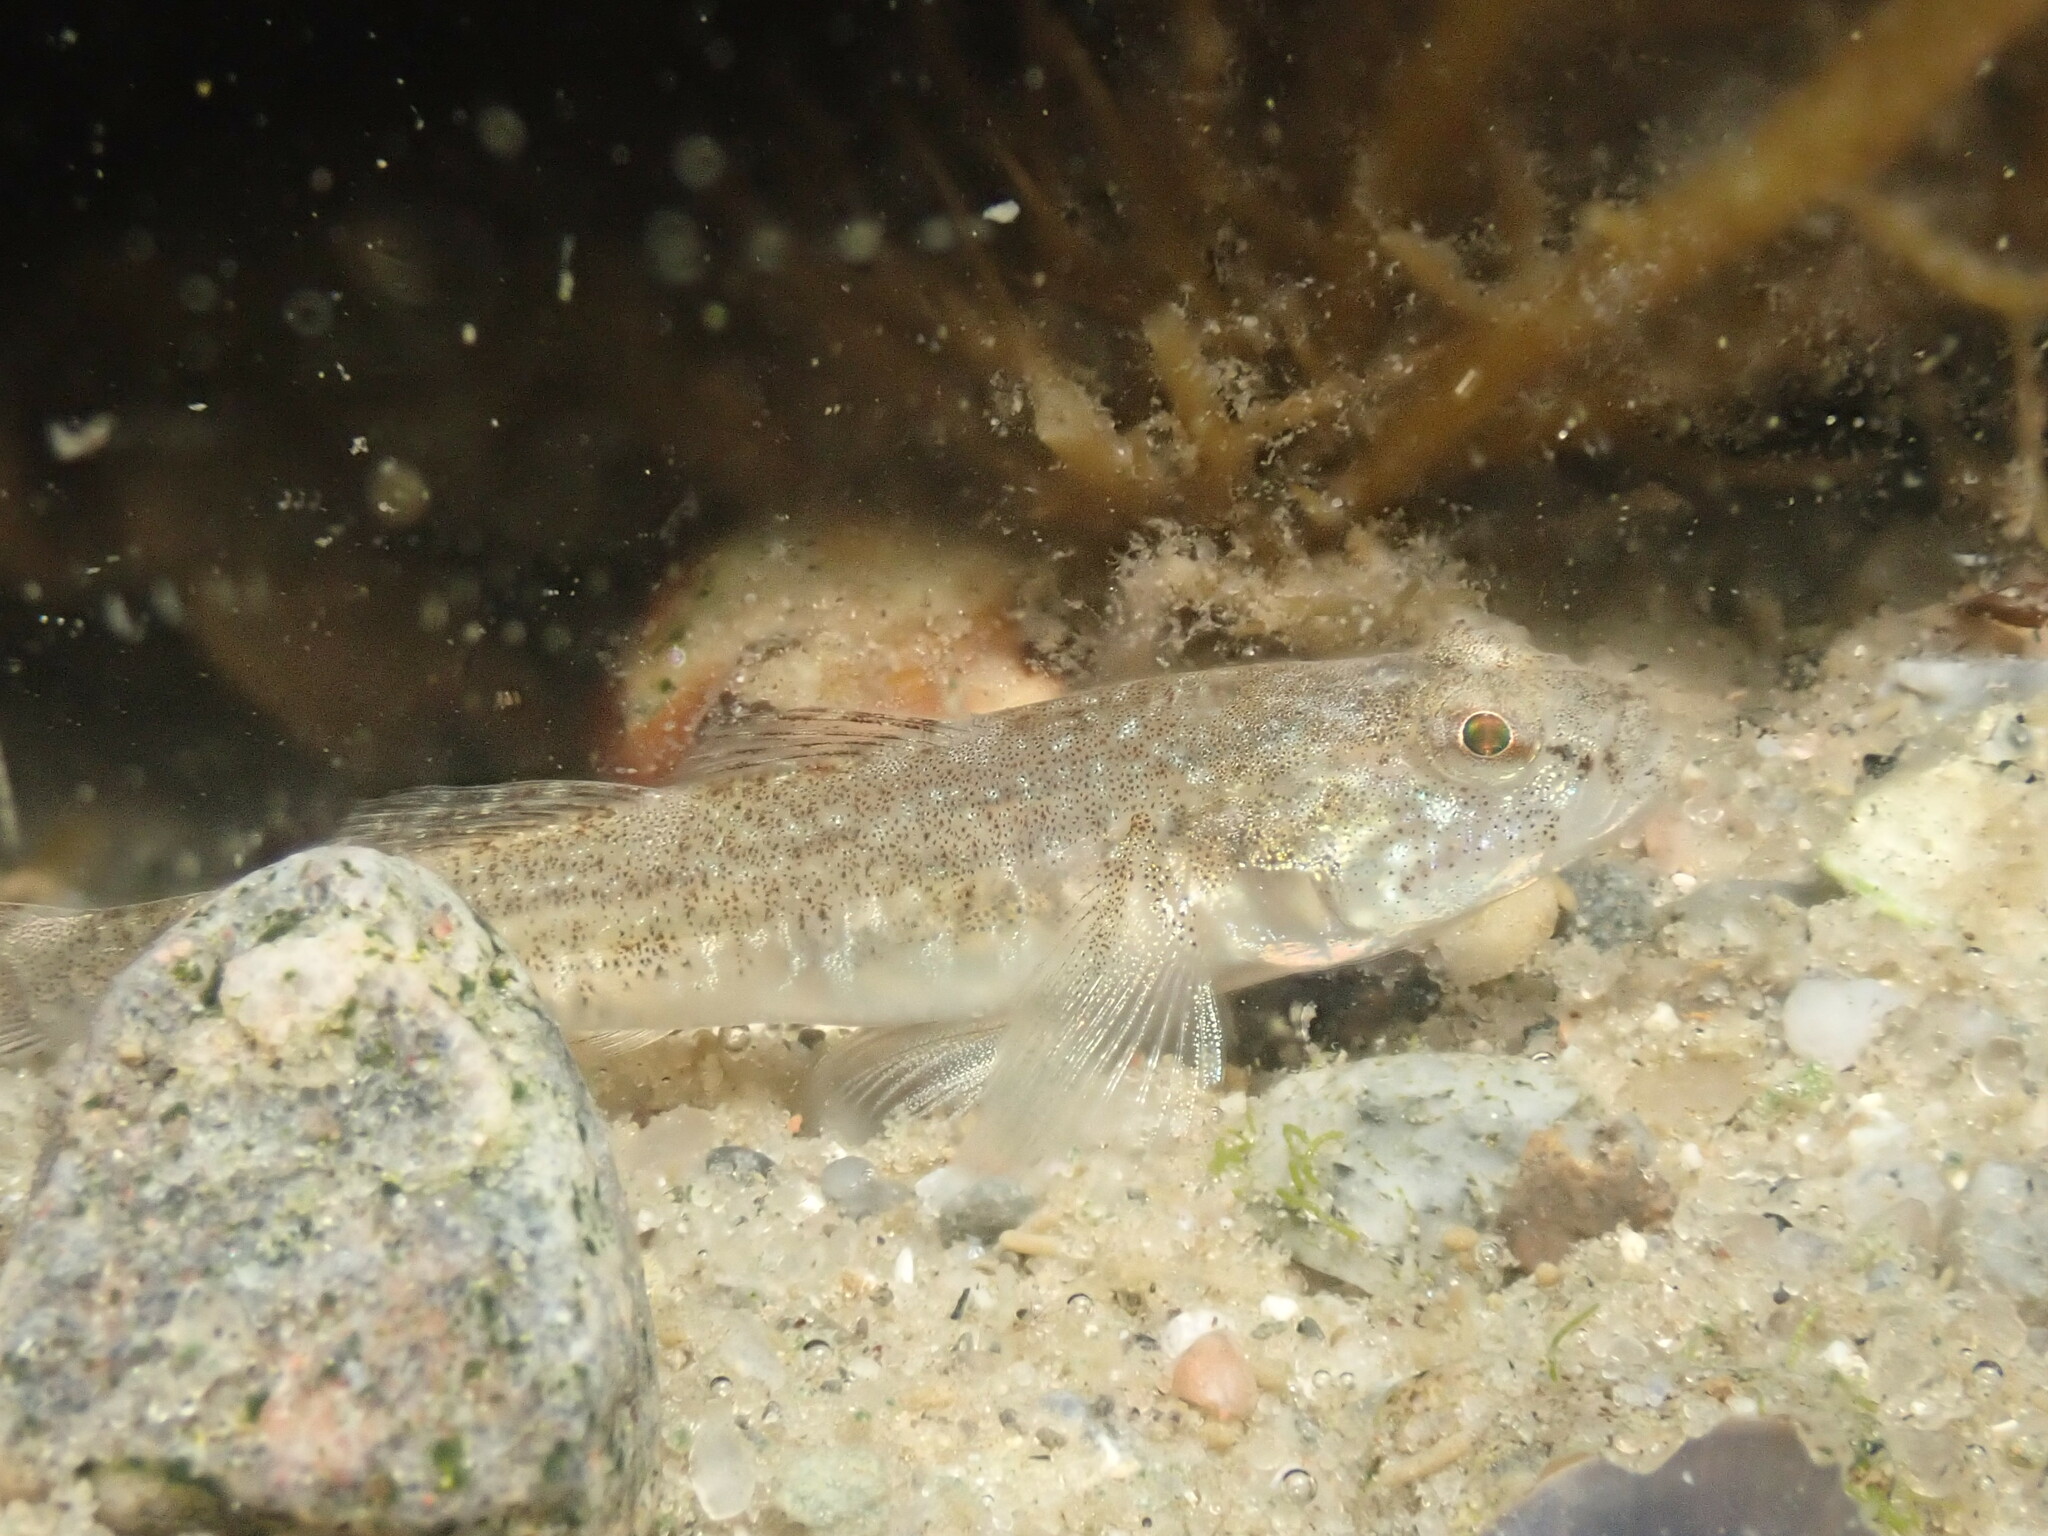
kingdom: Animalia
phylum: Chordata
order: Perciformes
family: Gobiidae
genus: Pomatoschistus
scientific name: Pomatoschistus microps
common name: Common goby
